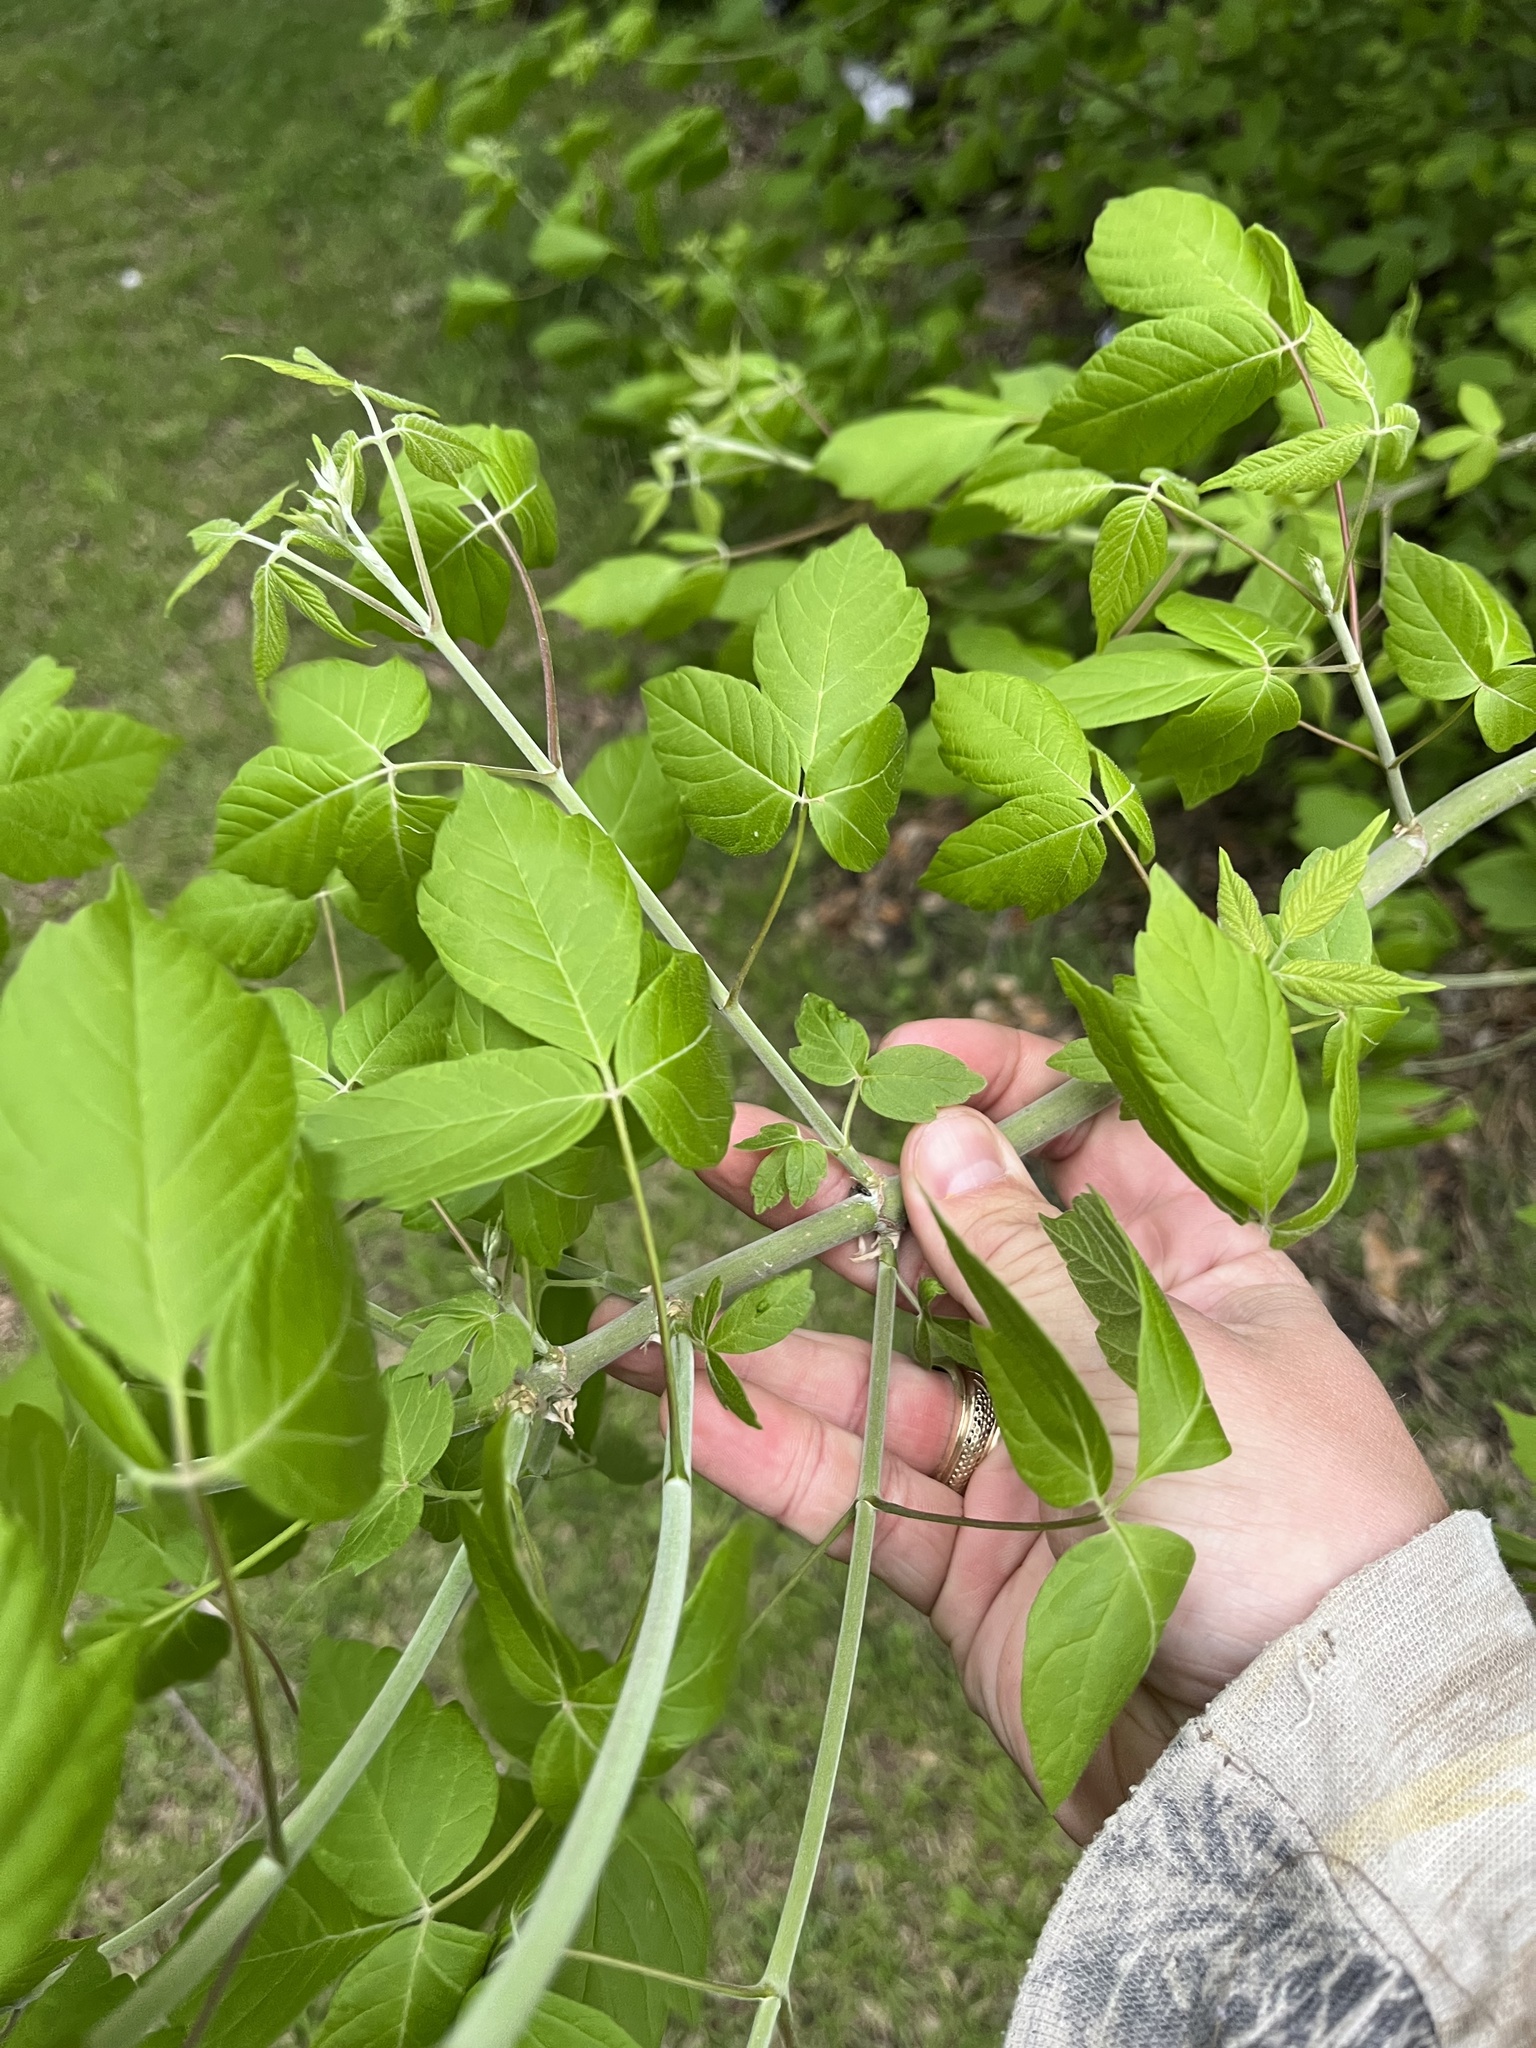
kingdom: Plantae
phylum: Tracheophyta
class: Magnoliopsida
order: Sapindales
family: Sapindaceae
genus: Acer
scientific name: Acer negundo
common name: Ashleaf maple
